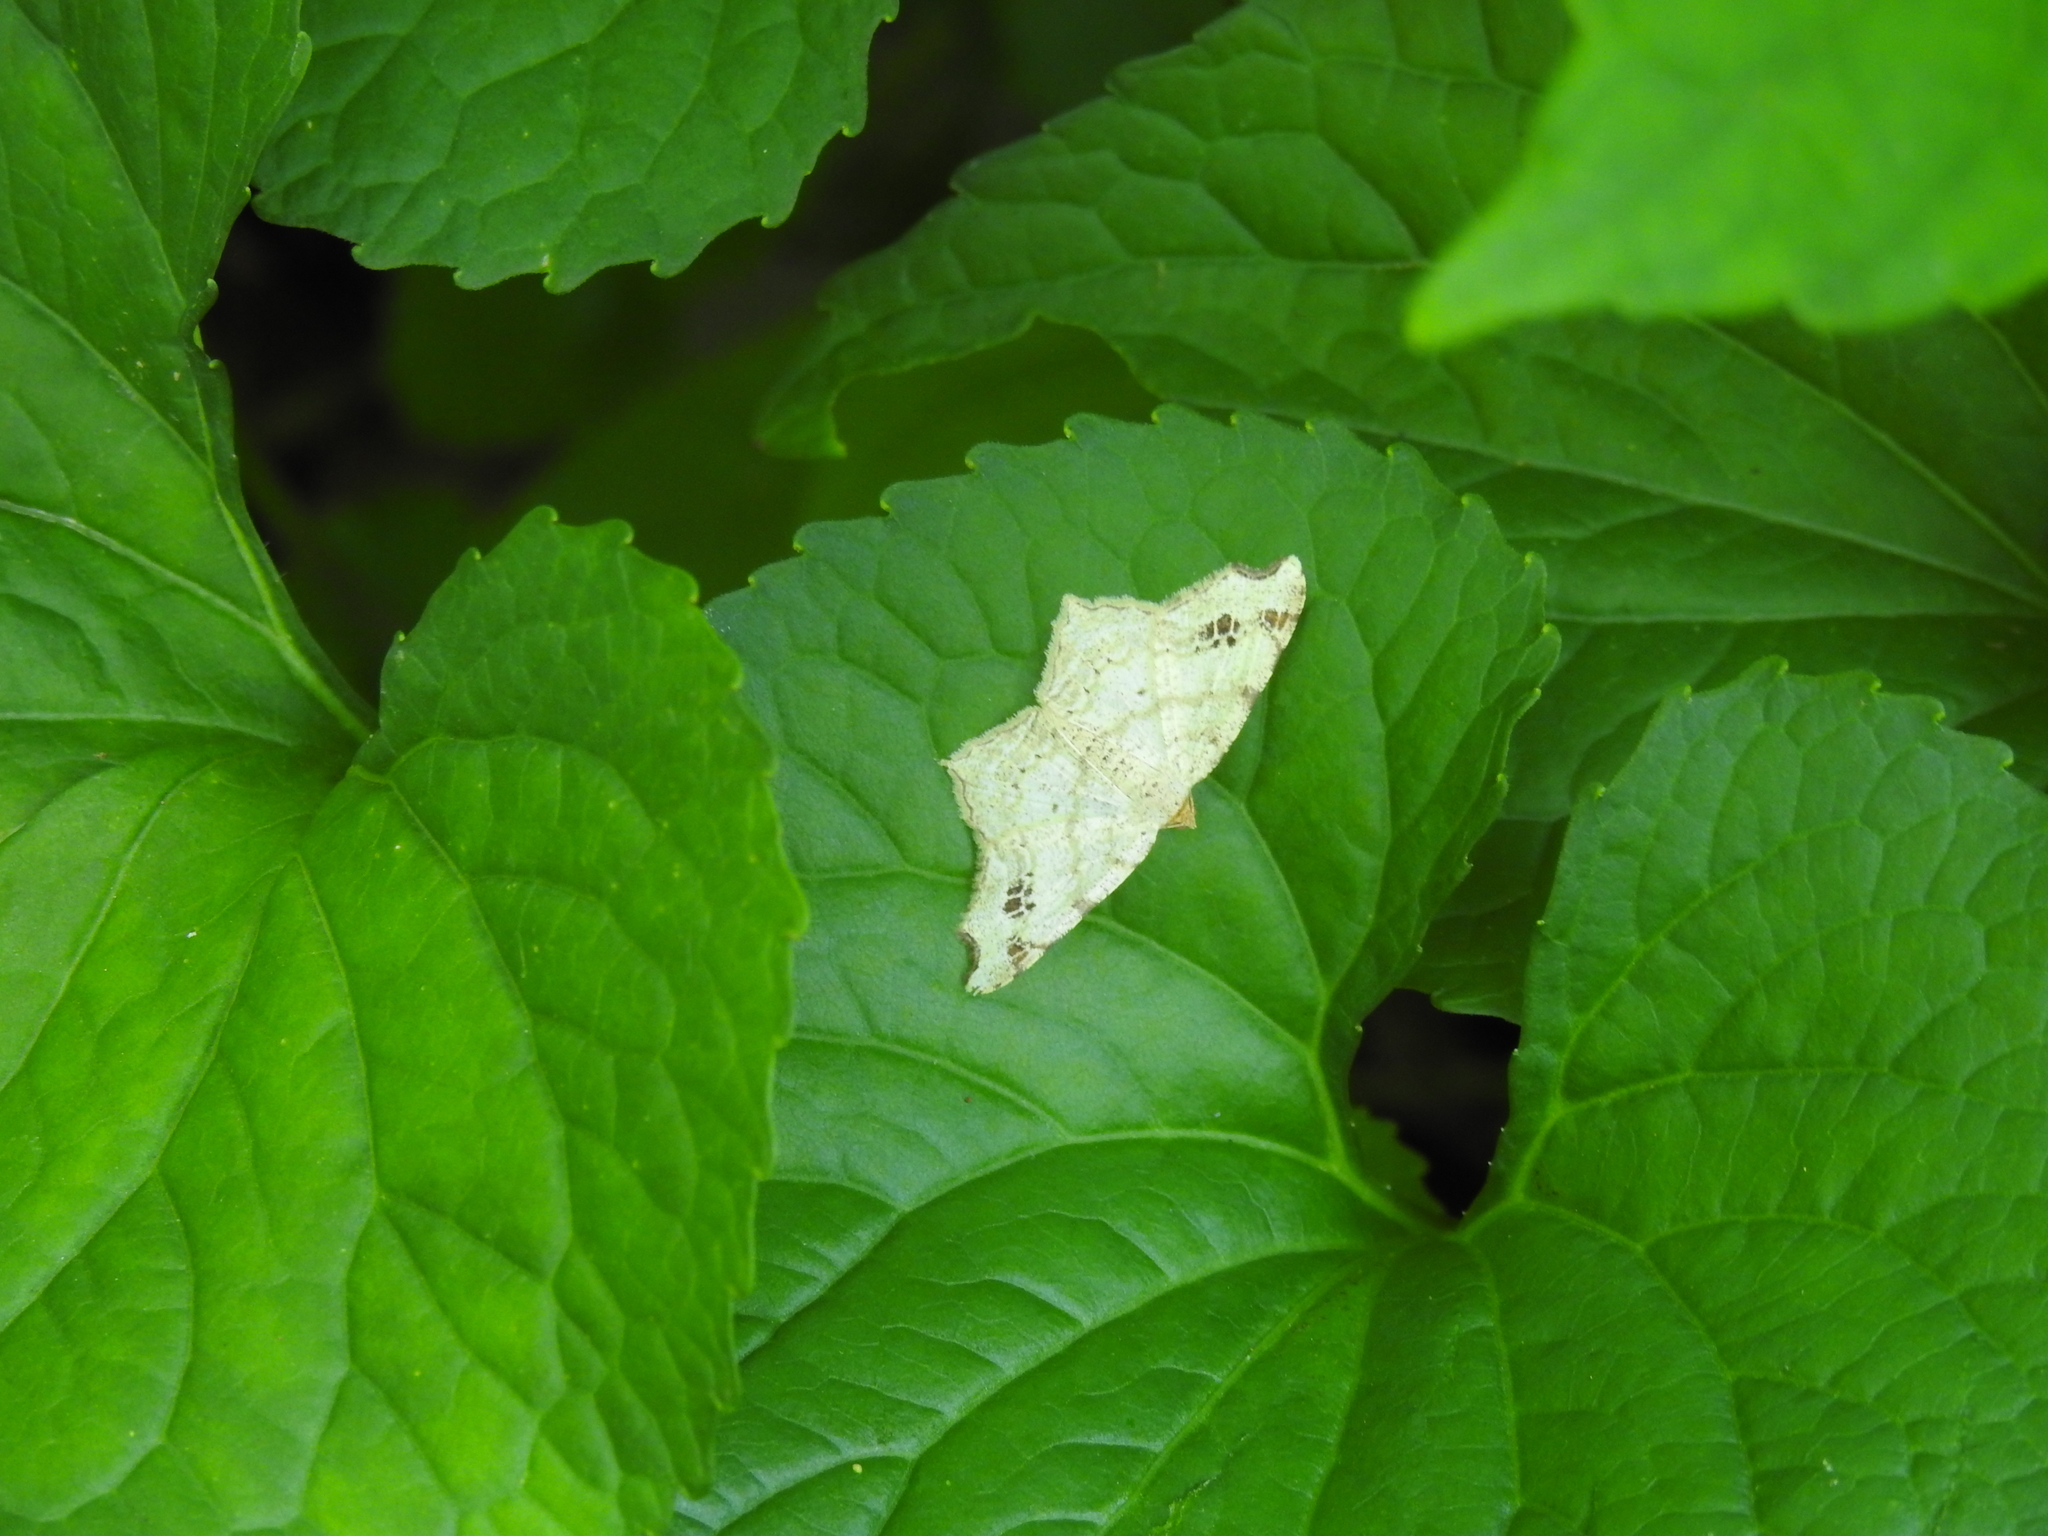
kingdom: Animalia
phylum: Arthropoda
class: Insecta
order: Lepidoptera
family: Geometridae
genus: Macaria
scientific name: Macaria aemulataria
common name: Common angle
